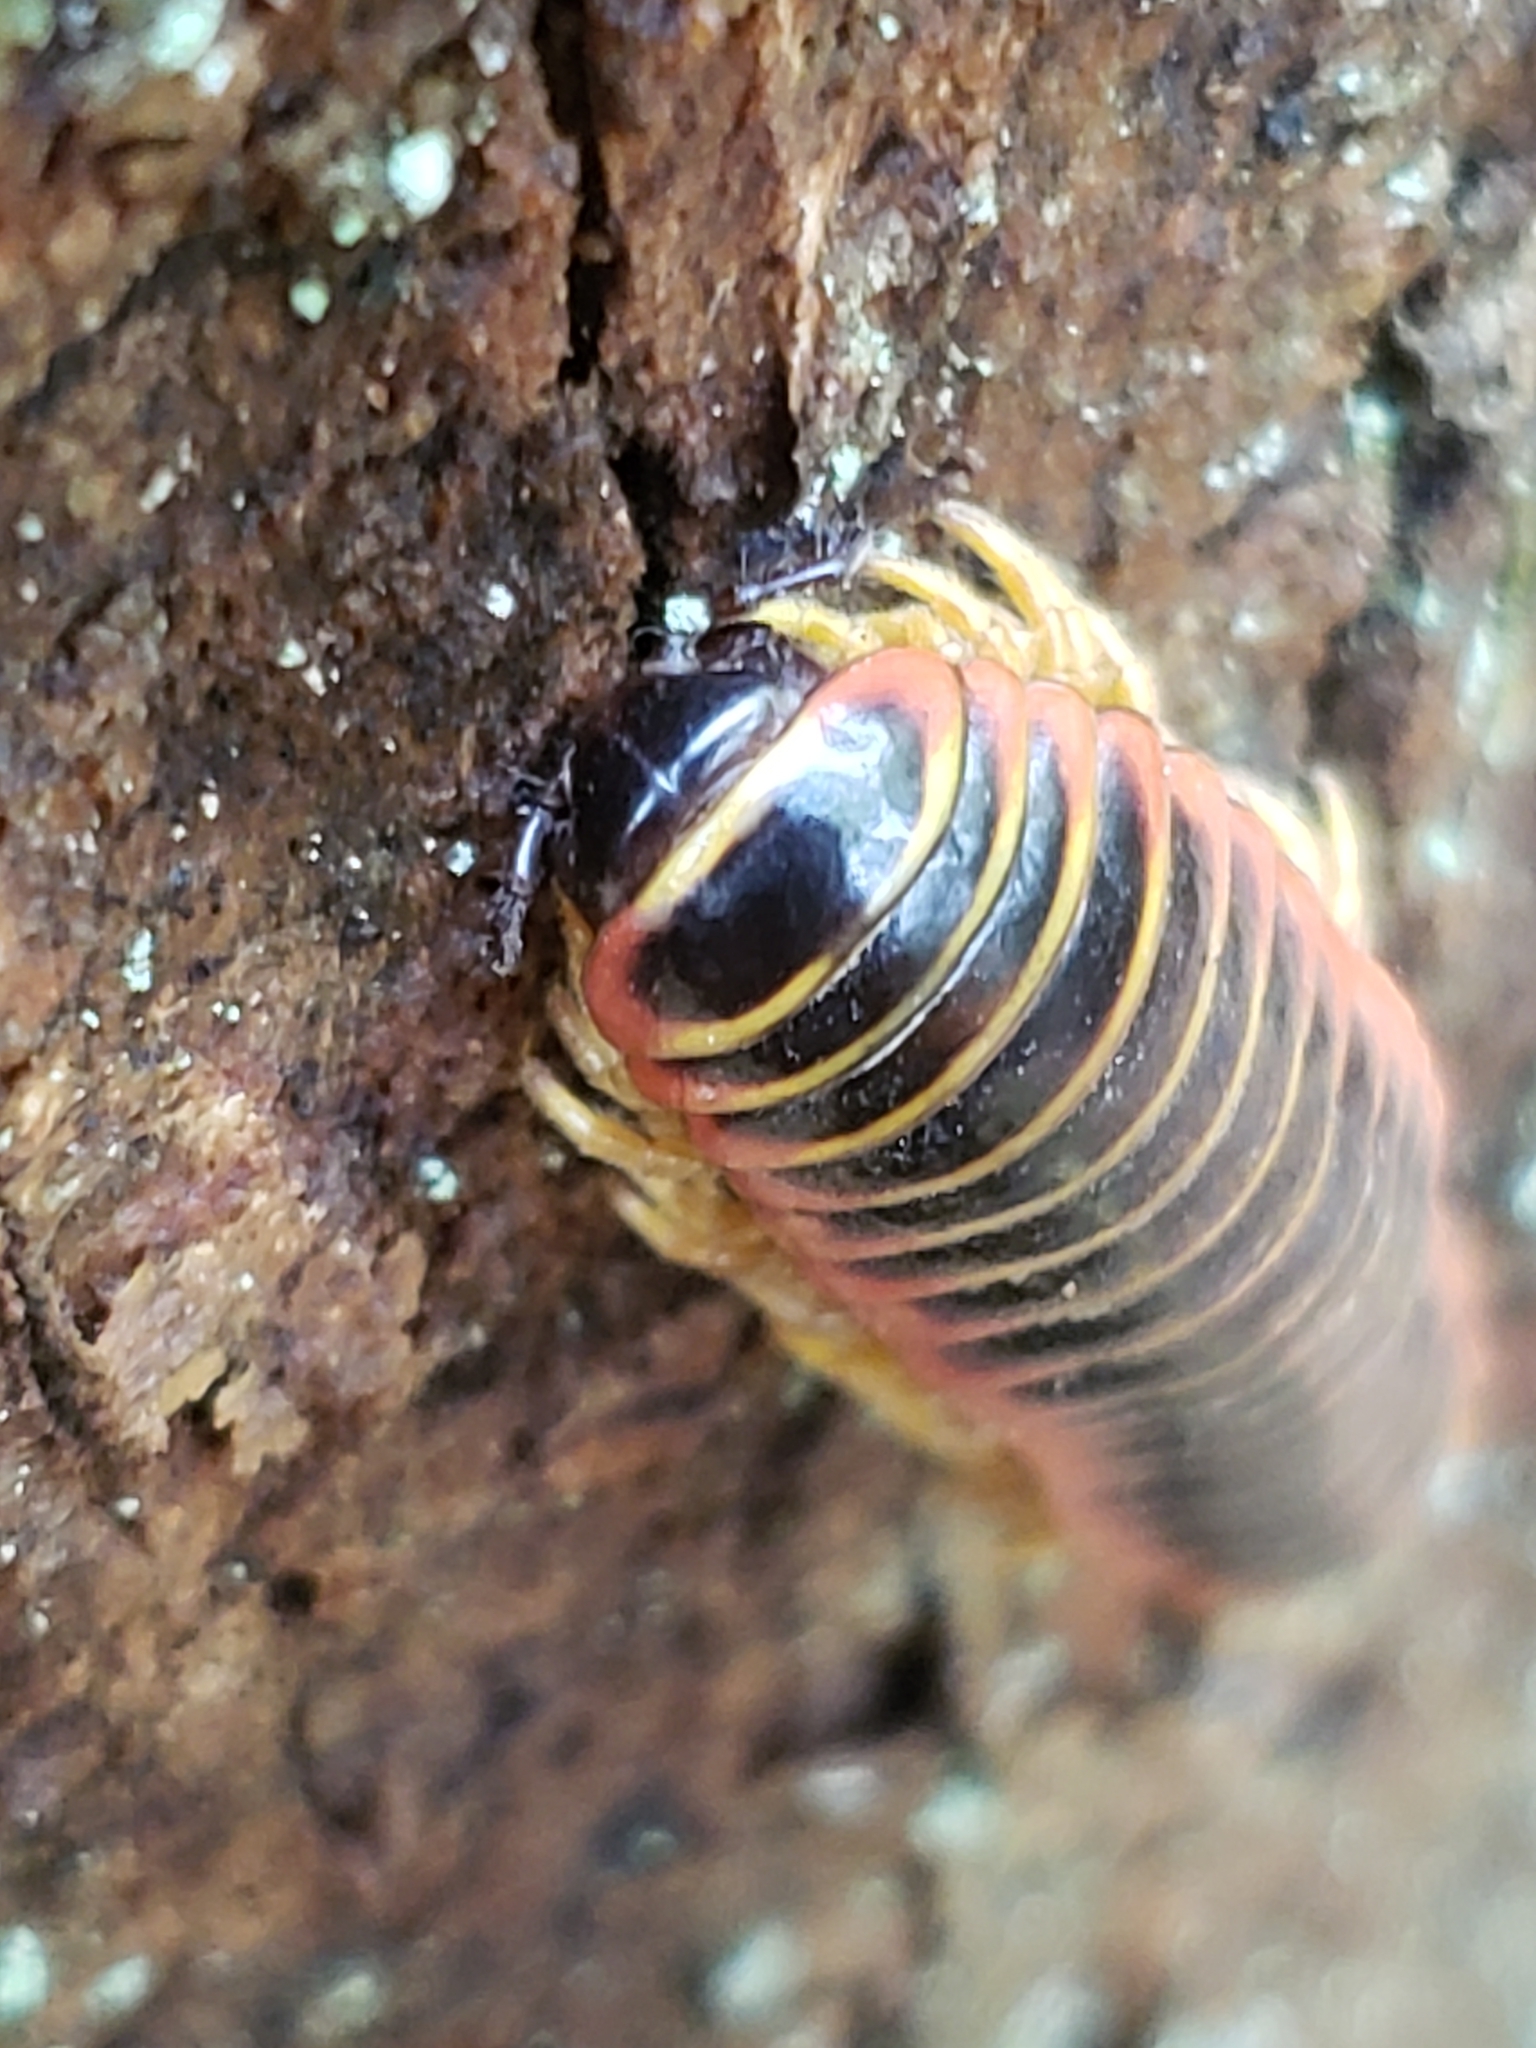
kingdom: Animalia
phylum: Arthropoda
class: Diplopoda
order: Polydesmida
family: Xystodesmidae
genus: Apheloria
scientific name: Apheloria virginiensis
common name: Black-and-gold flat millipede
